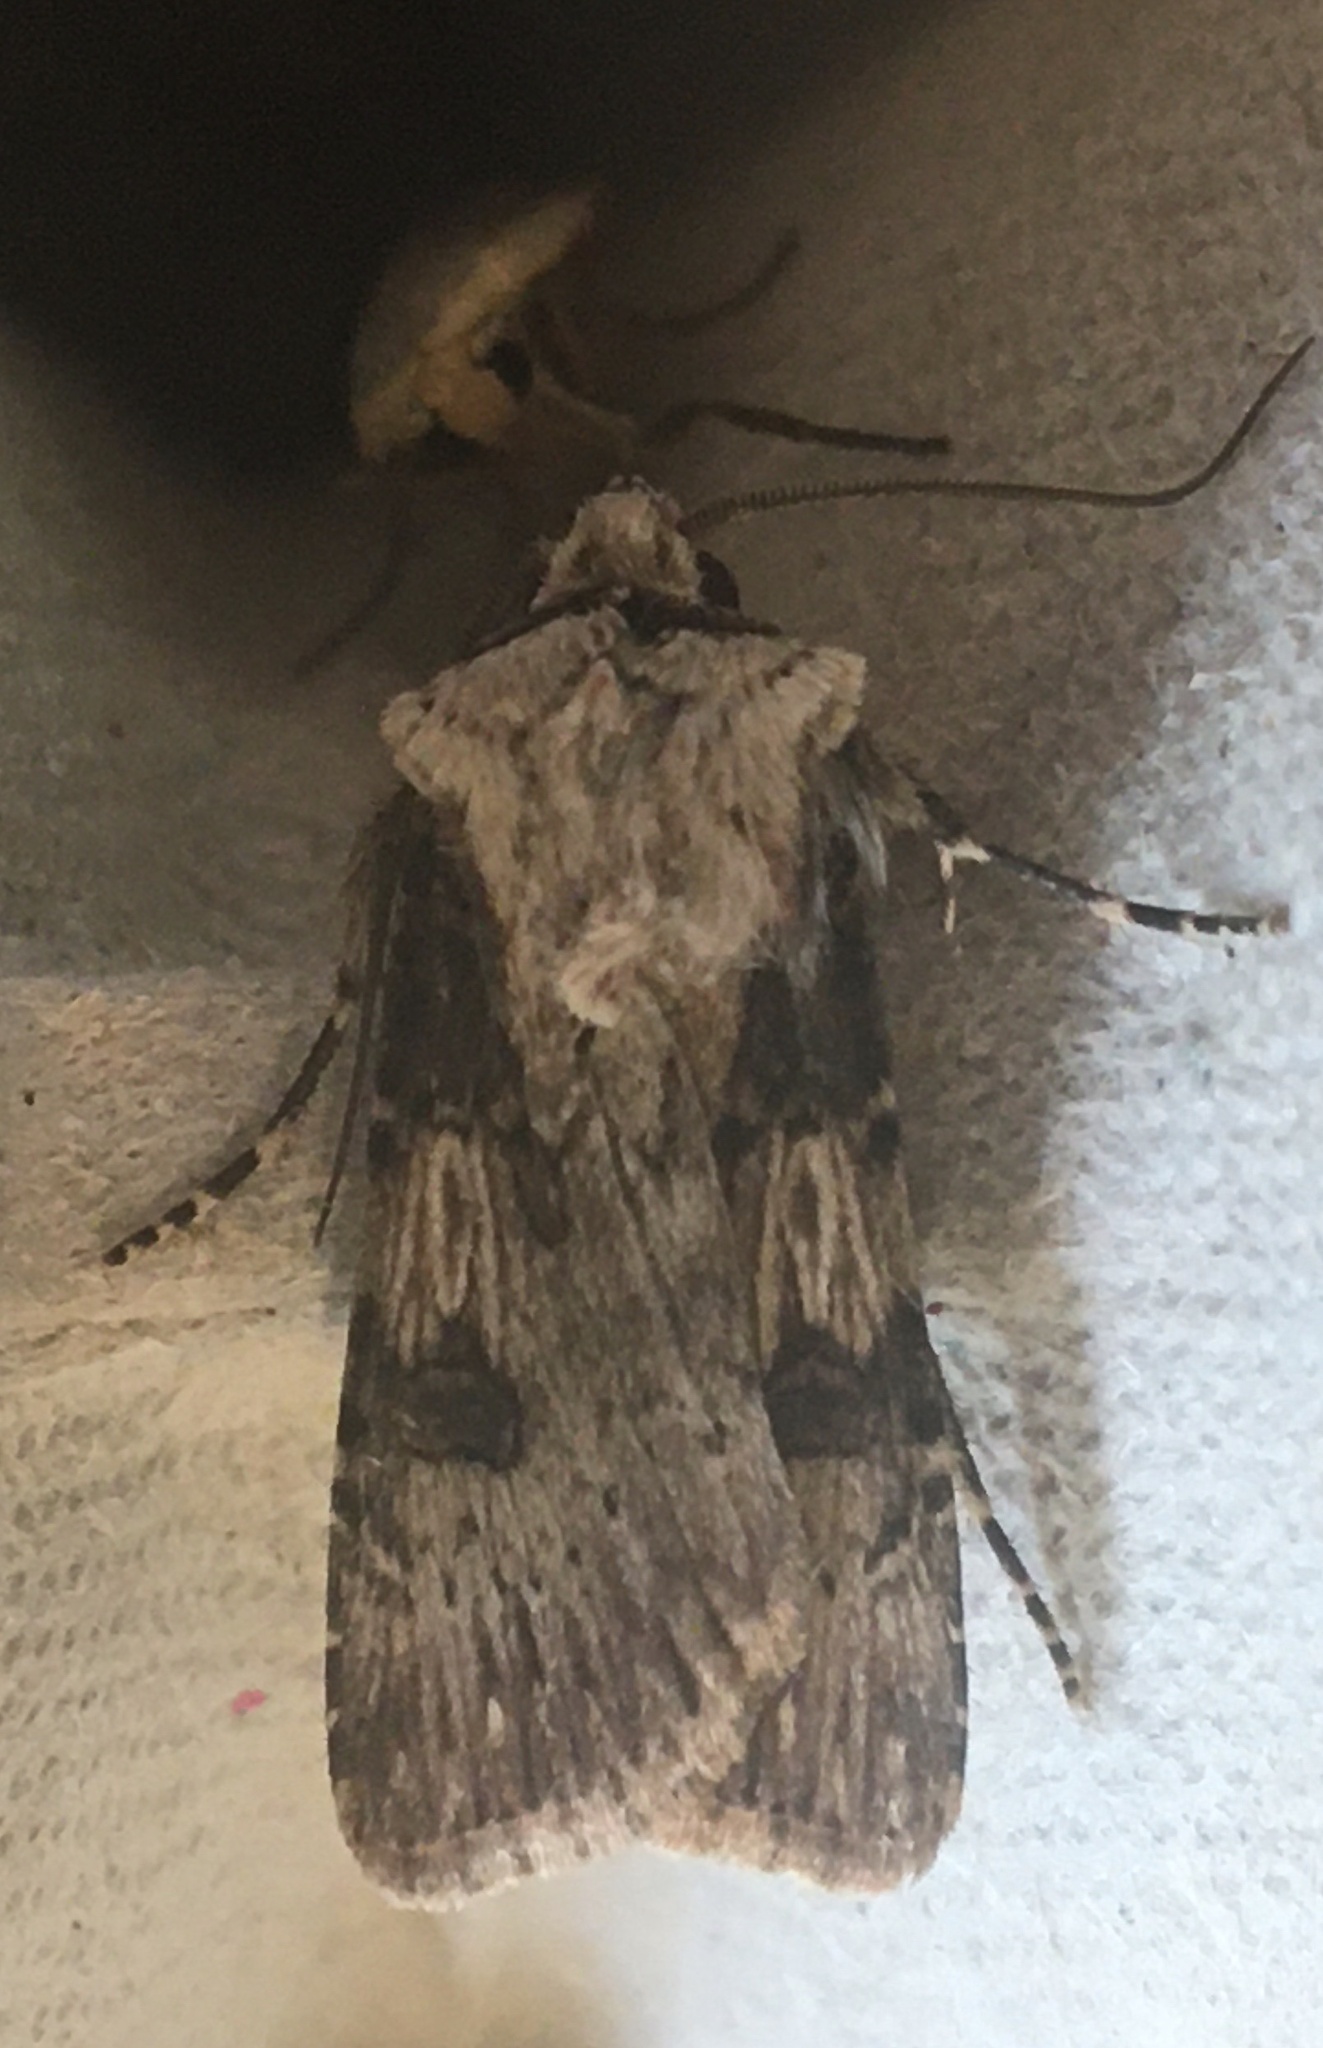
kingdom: Animalia
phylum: Arthropoda
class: Insecta
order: Lepidoptera
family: Noctuidae
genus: Agrotis
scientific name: Agrotis puta
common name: Shuttle-shaped dart
